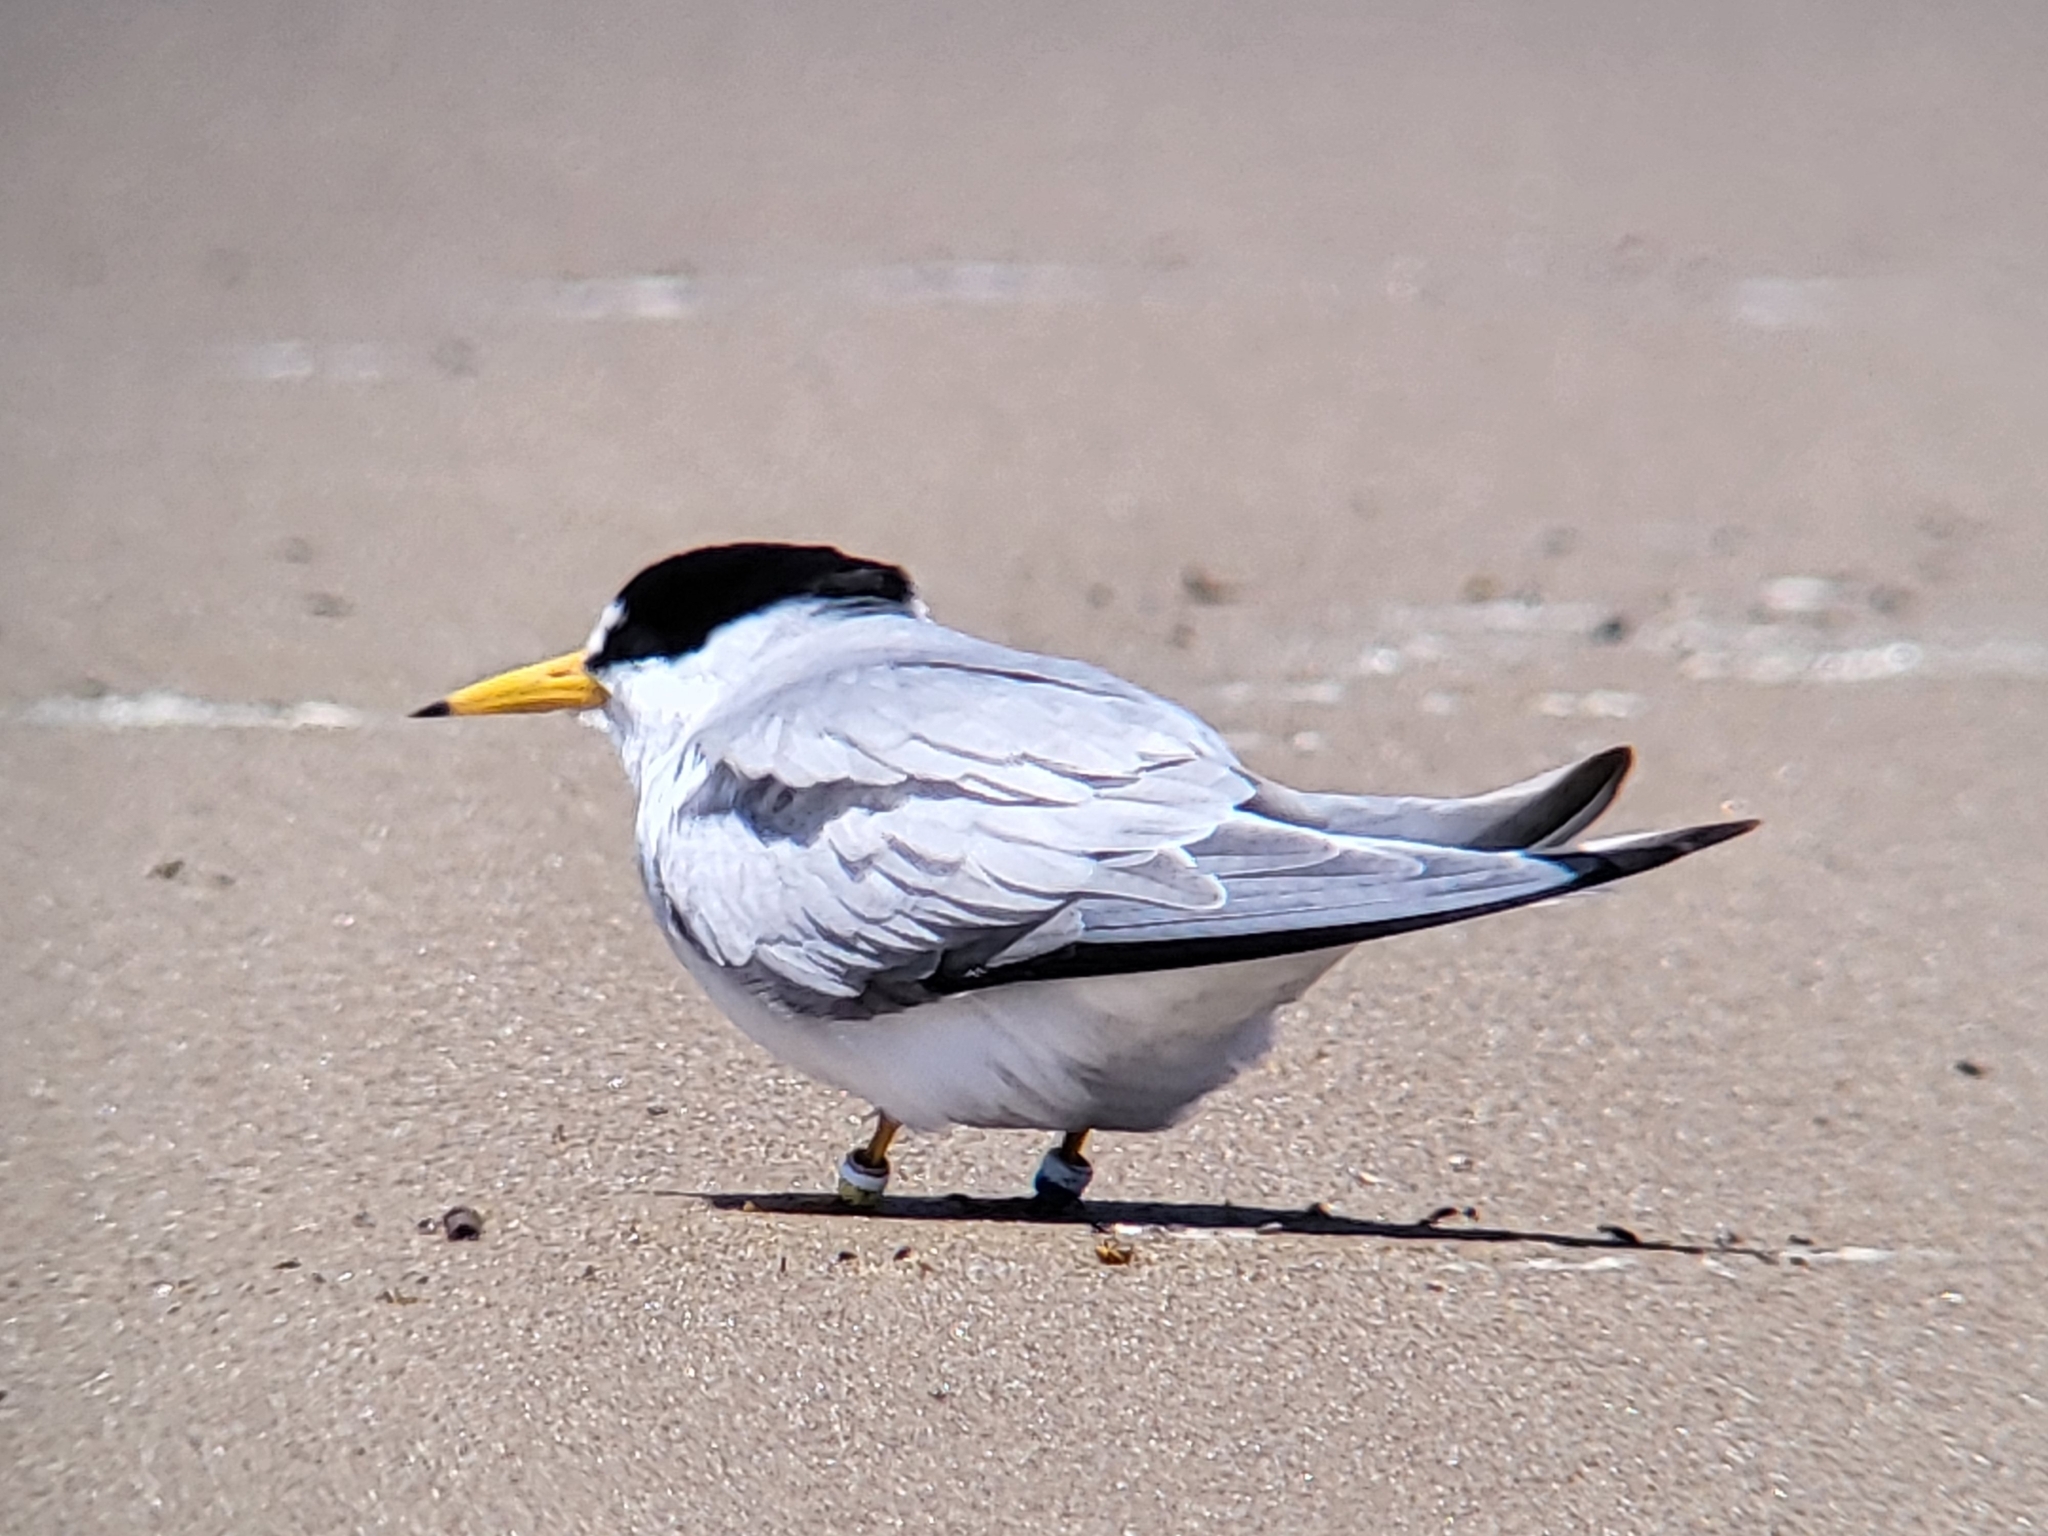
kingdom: Animalia
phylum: Chordata
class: Aves
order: Charadriiformes
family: Laridae
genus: Sternula
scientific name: Sternula antillarum
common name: Least tern
